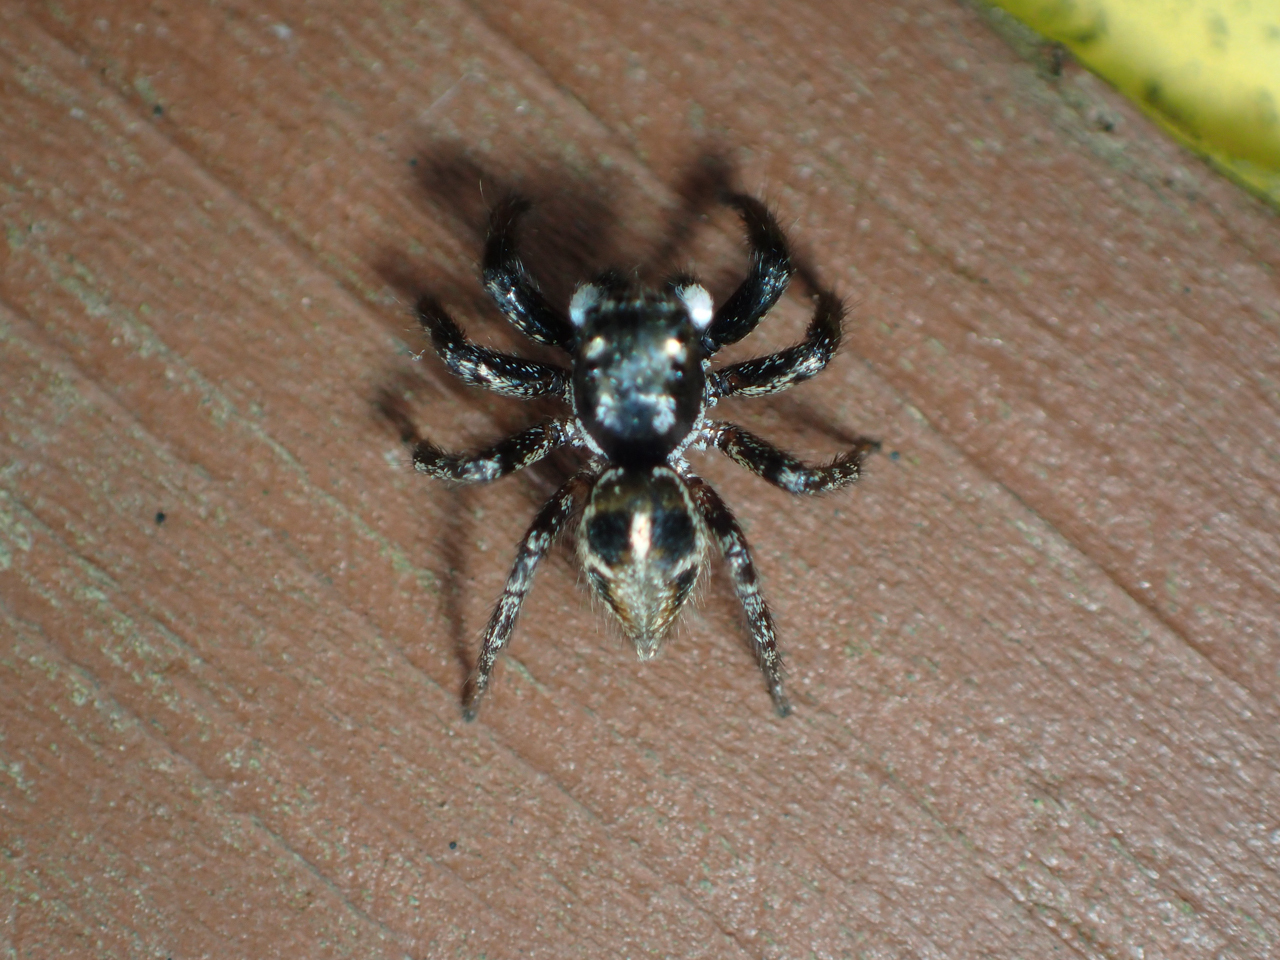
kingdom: Animalia
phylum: Arthropoda
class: Arachnida
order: Araneae
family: Salticidae
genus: Anasaitis
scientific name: Anasaitis canosa
